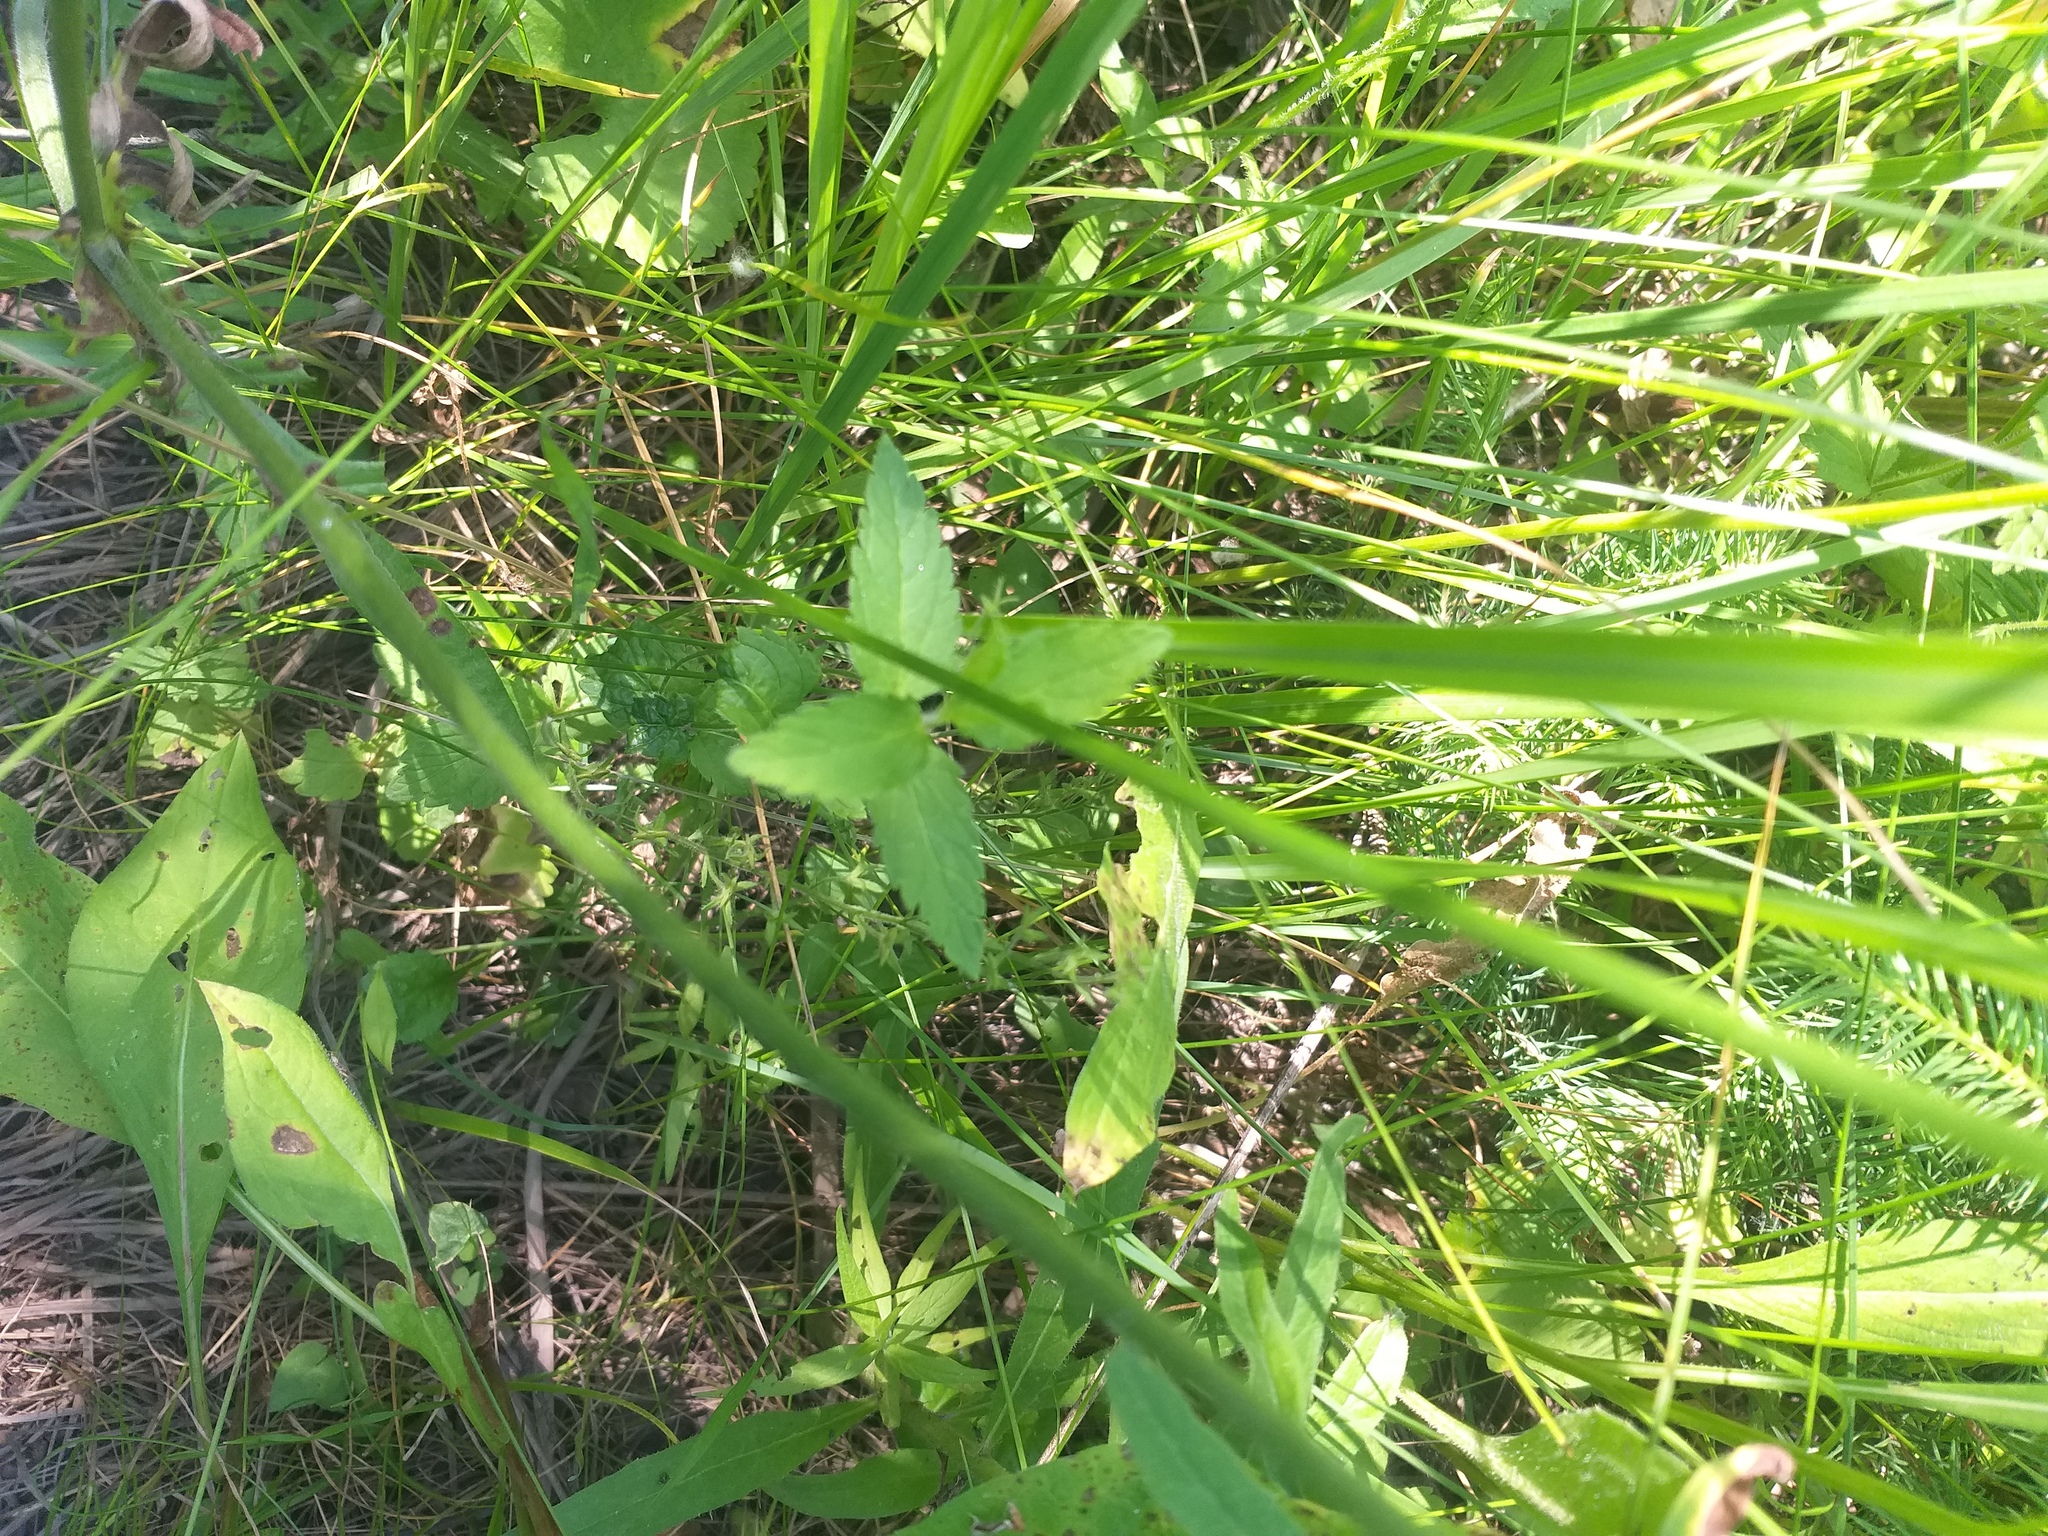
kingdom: Plantae
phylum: Tracheophyta
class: Magnoliopsida
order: Lamiales
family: Plantaginaceae
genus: Veronica
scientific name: Veronica chamaedrys
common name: Germander speedwell
